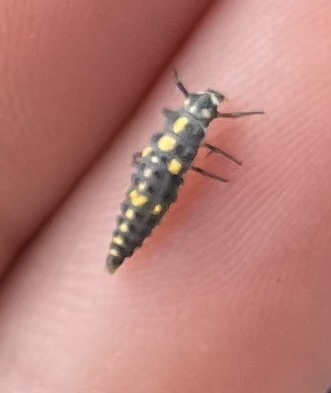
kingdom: Animalia
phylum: Arthropoda
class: Insecta
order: Coleoptera
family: Coccinellidae
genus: Olla
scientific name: Olla v-nigrum
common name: Ashy gray lady beetle
